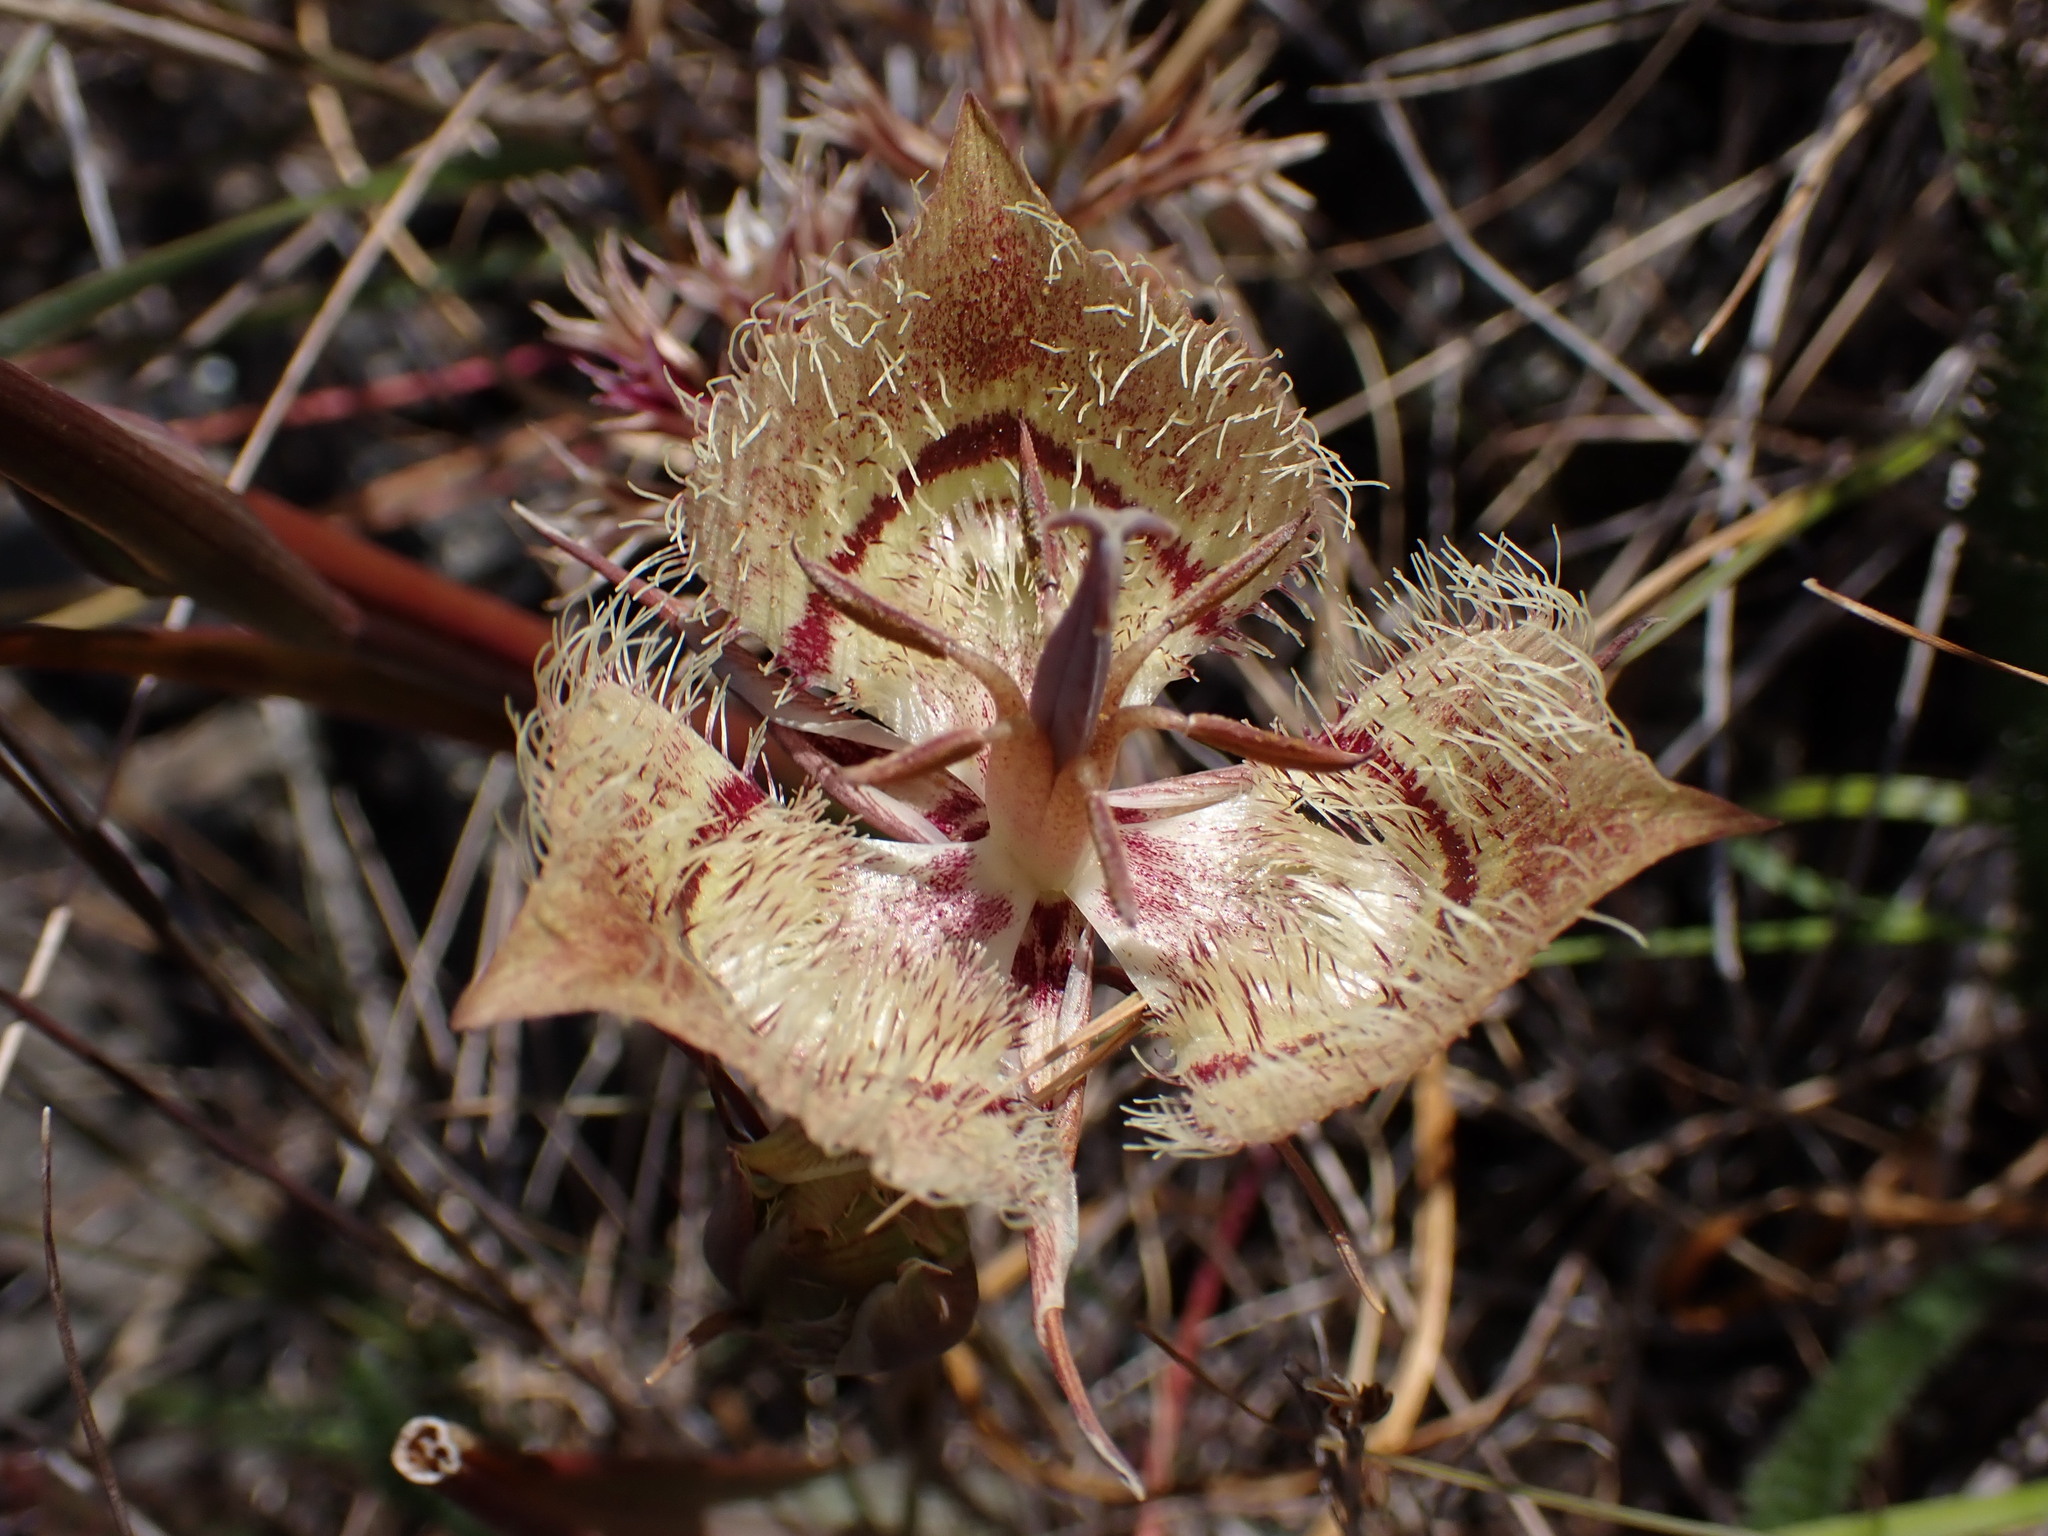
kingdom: Plantae
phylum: Tracheophyta
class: Liliopsida
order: Liliales
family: Liliaceae
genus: Calochortus
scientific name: Calochortus tiburonensis
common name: Tiburon mariposa-lily
